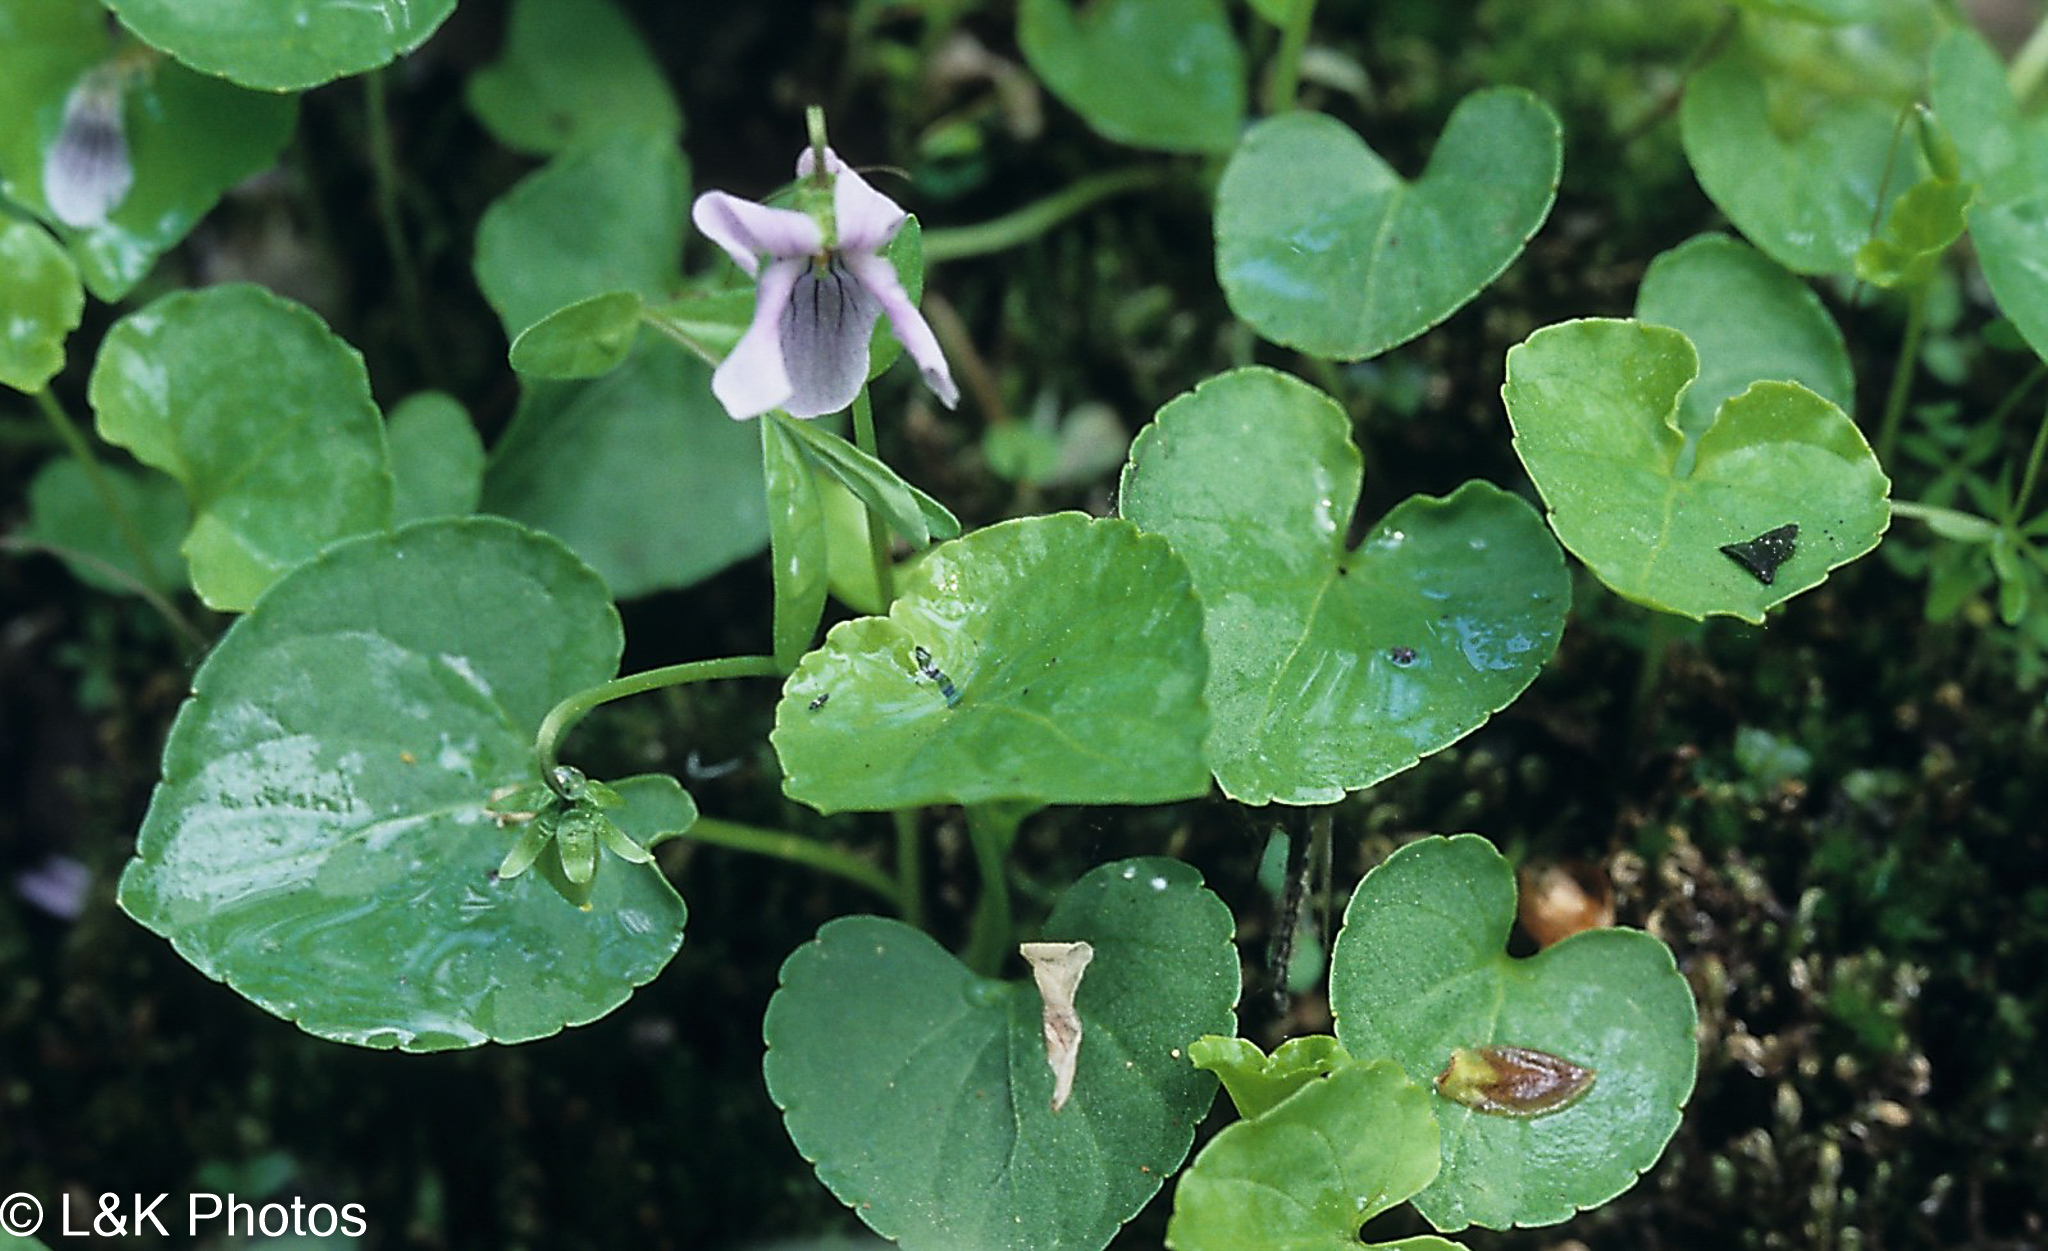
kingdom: Plantae
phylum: Tracheophyta
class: Magnoliopsida
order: Malpighiales
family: Violaceae
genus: Viola
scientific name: Viola palustris
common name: Marsh violet
